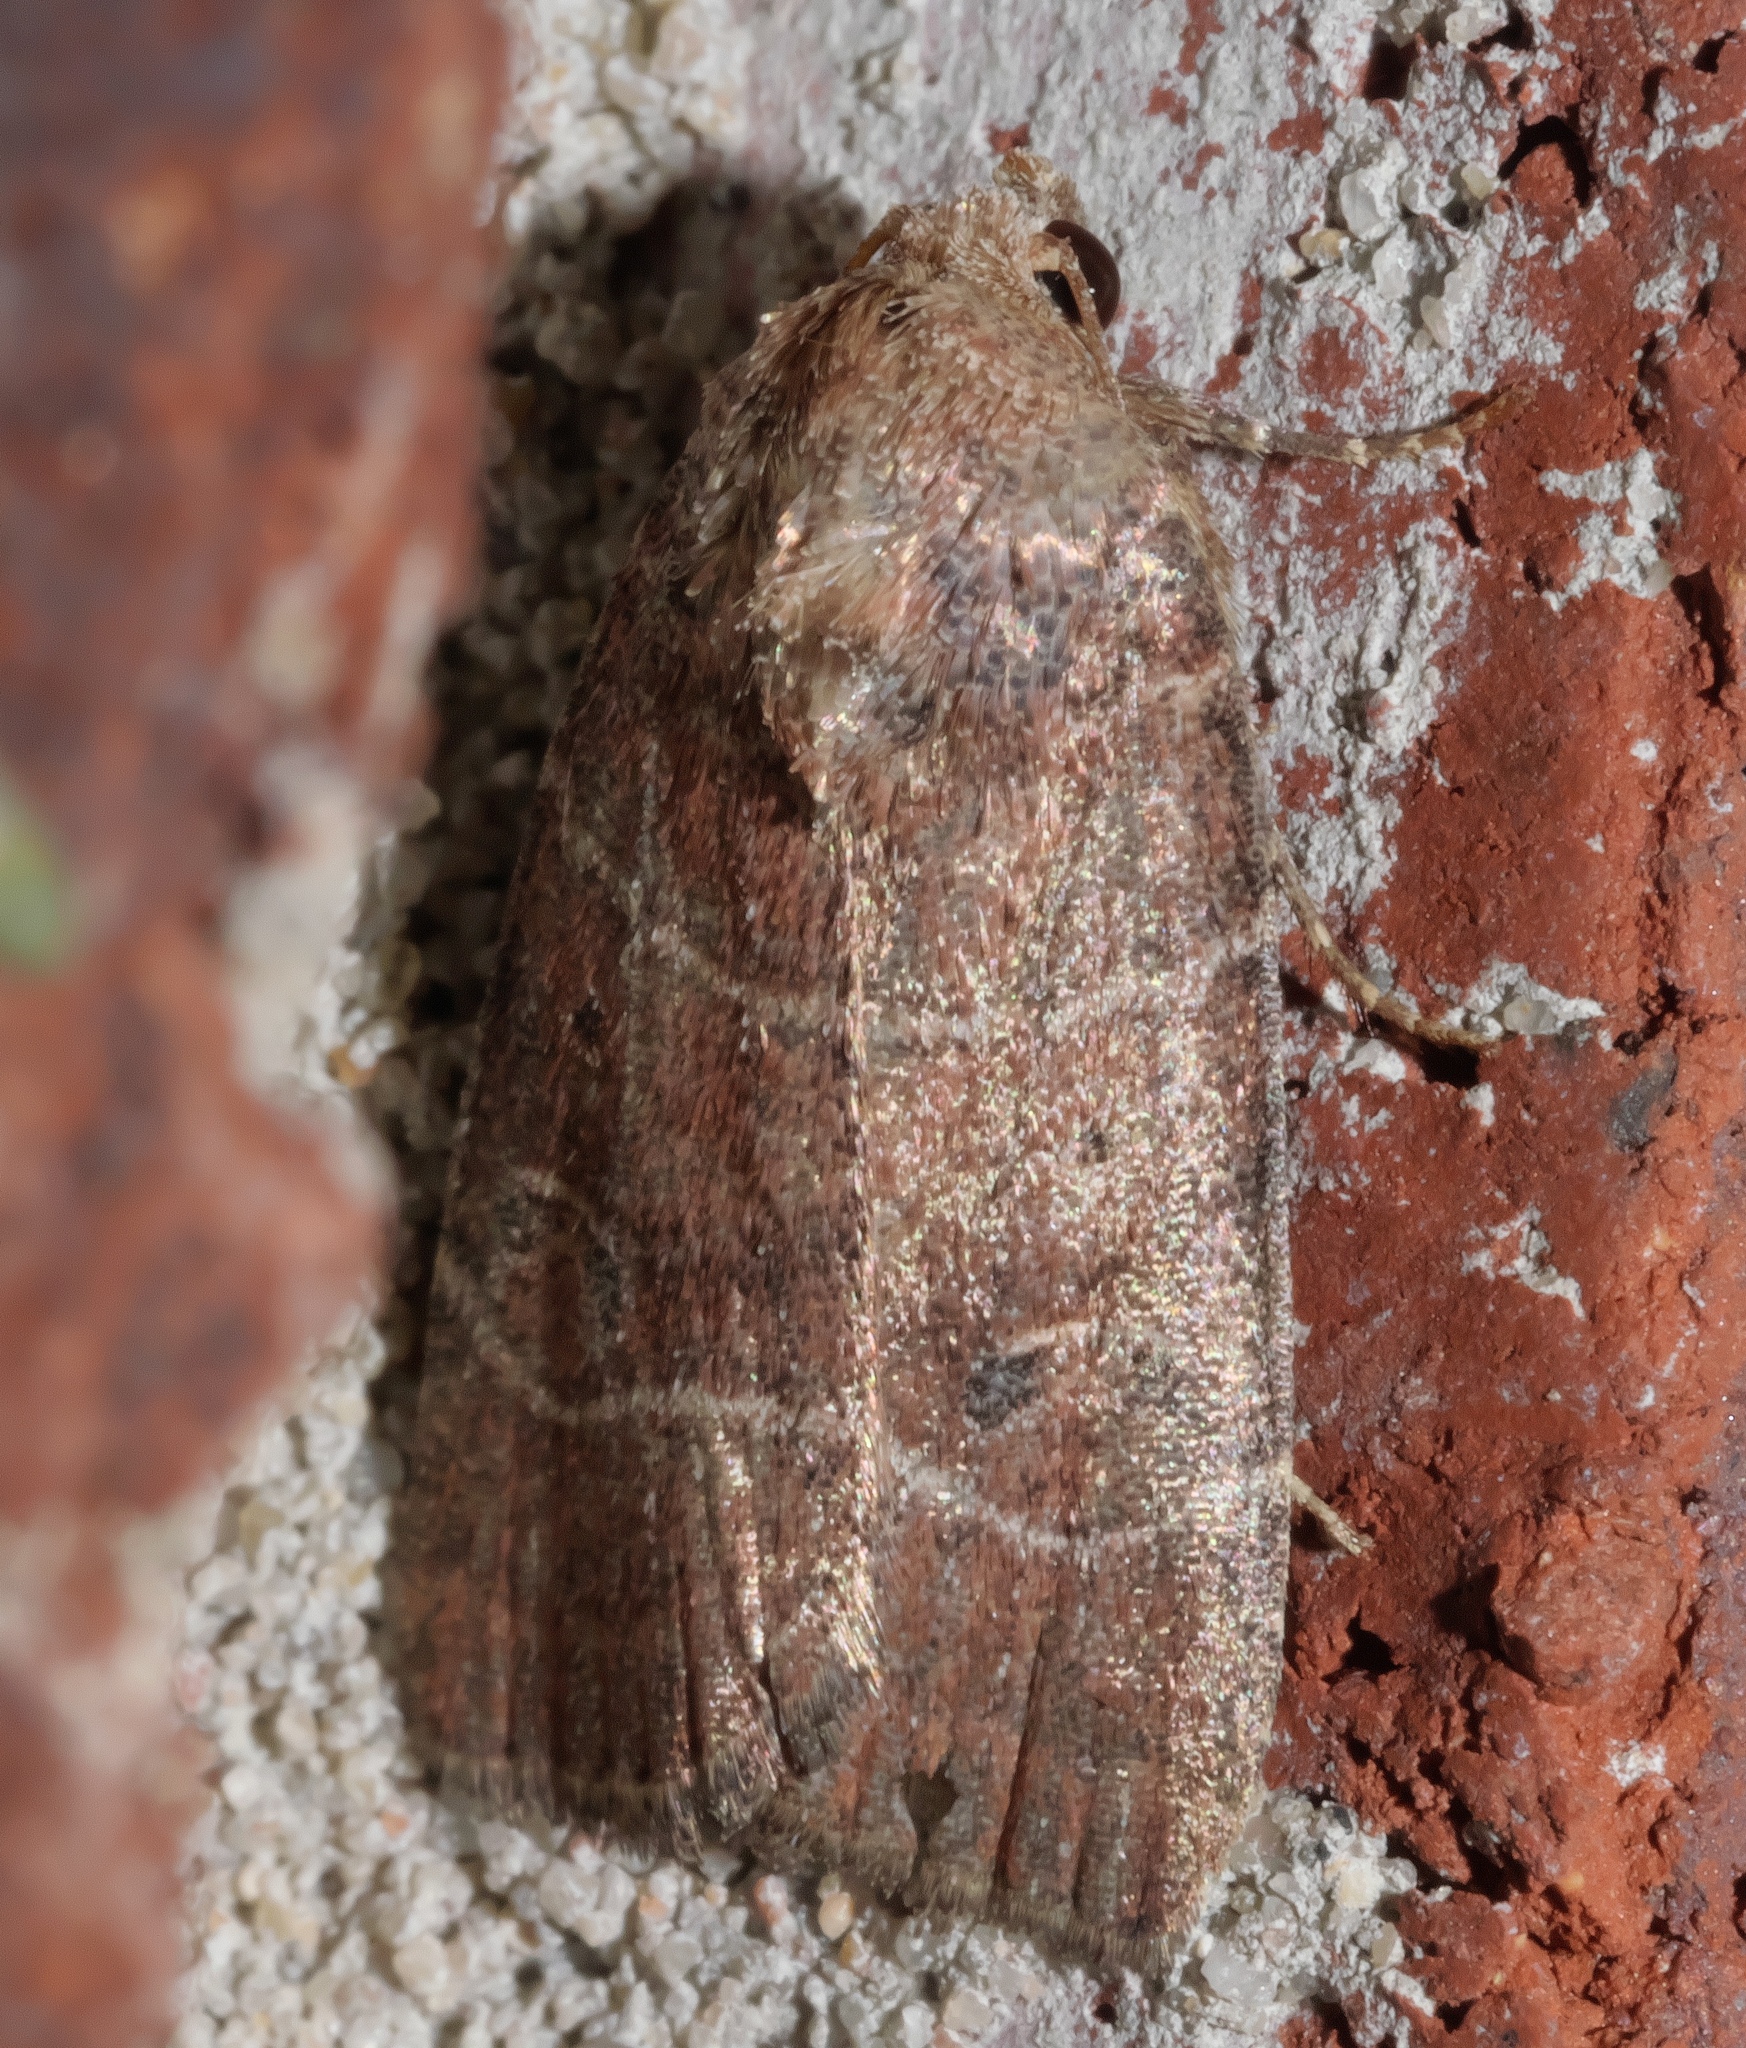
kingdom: Animalia
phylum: Arthropoda
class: Insecta
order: Lepidoptera
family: Noctuidae
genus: Elaphria
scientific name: Elaphria grata
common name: Grateful midget moth
